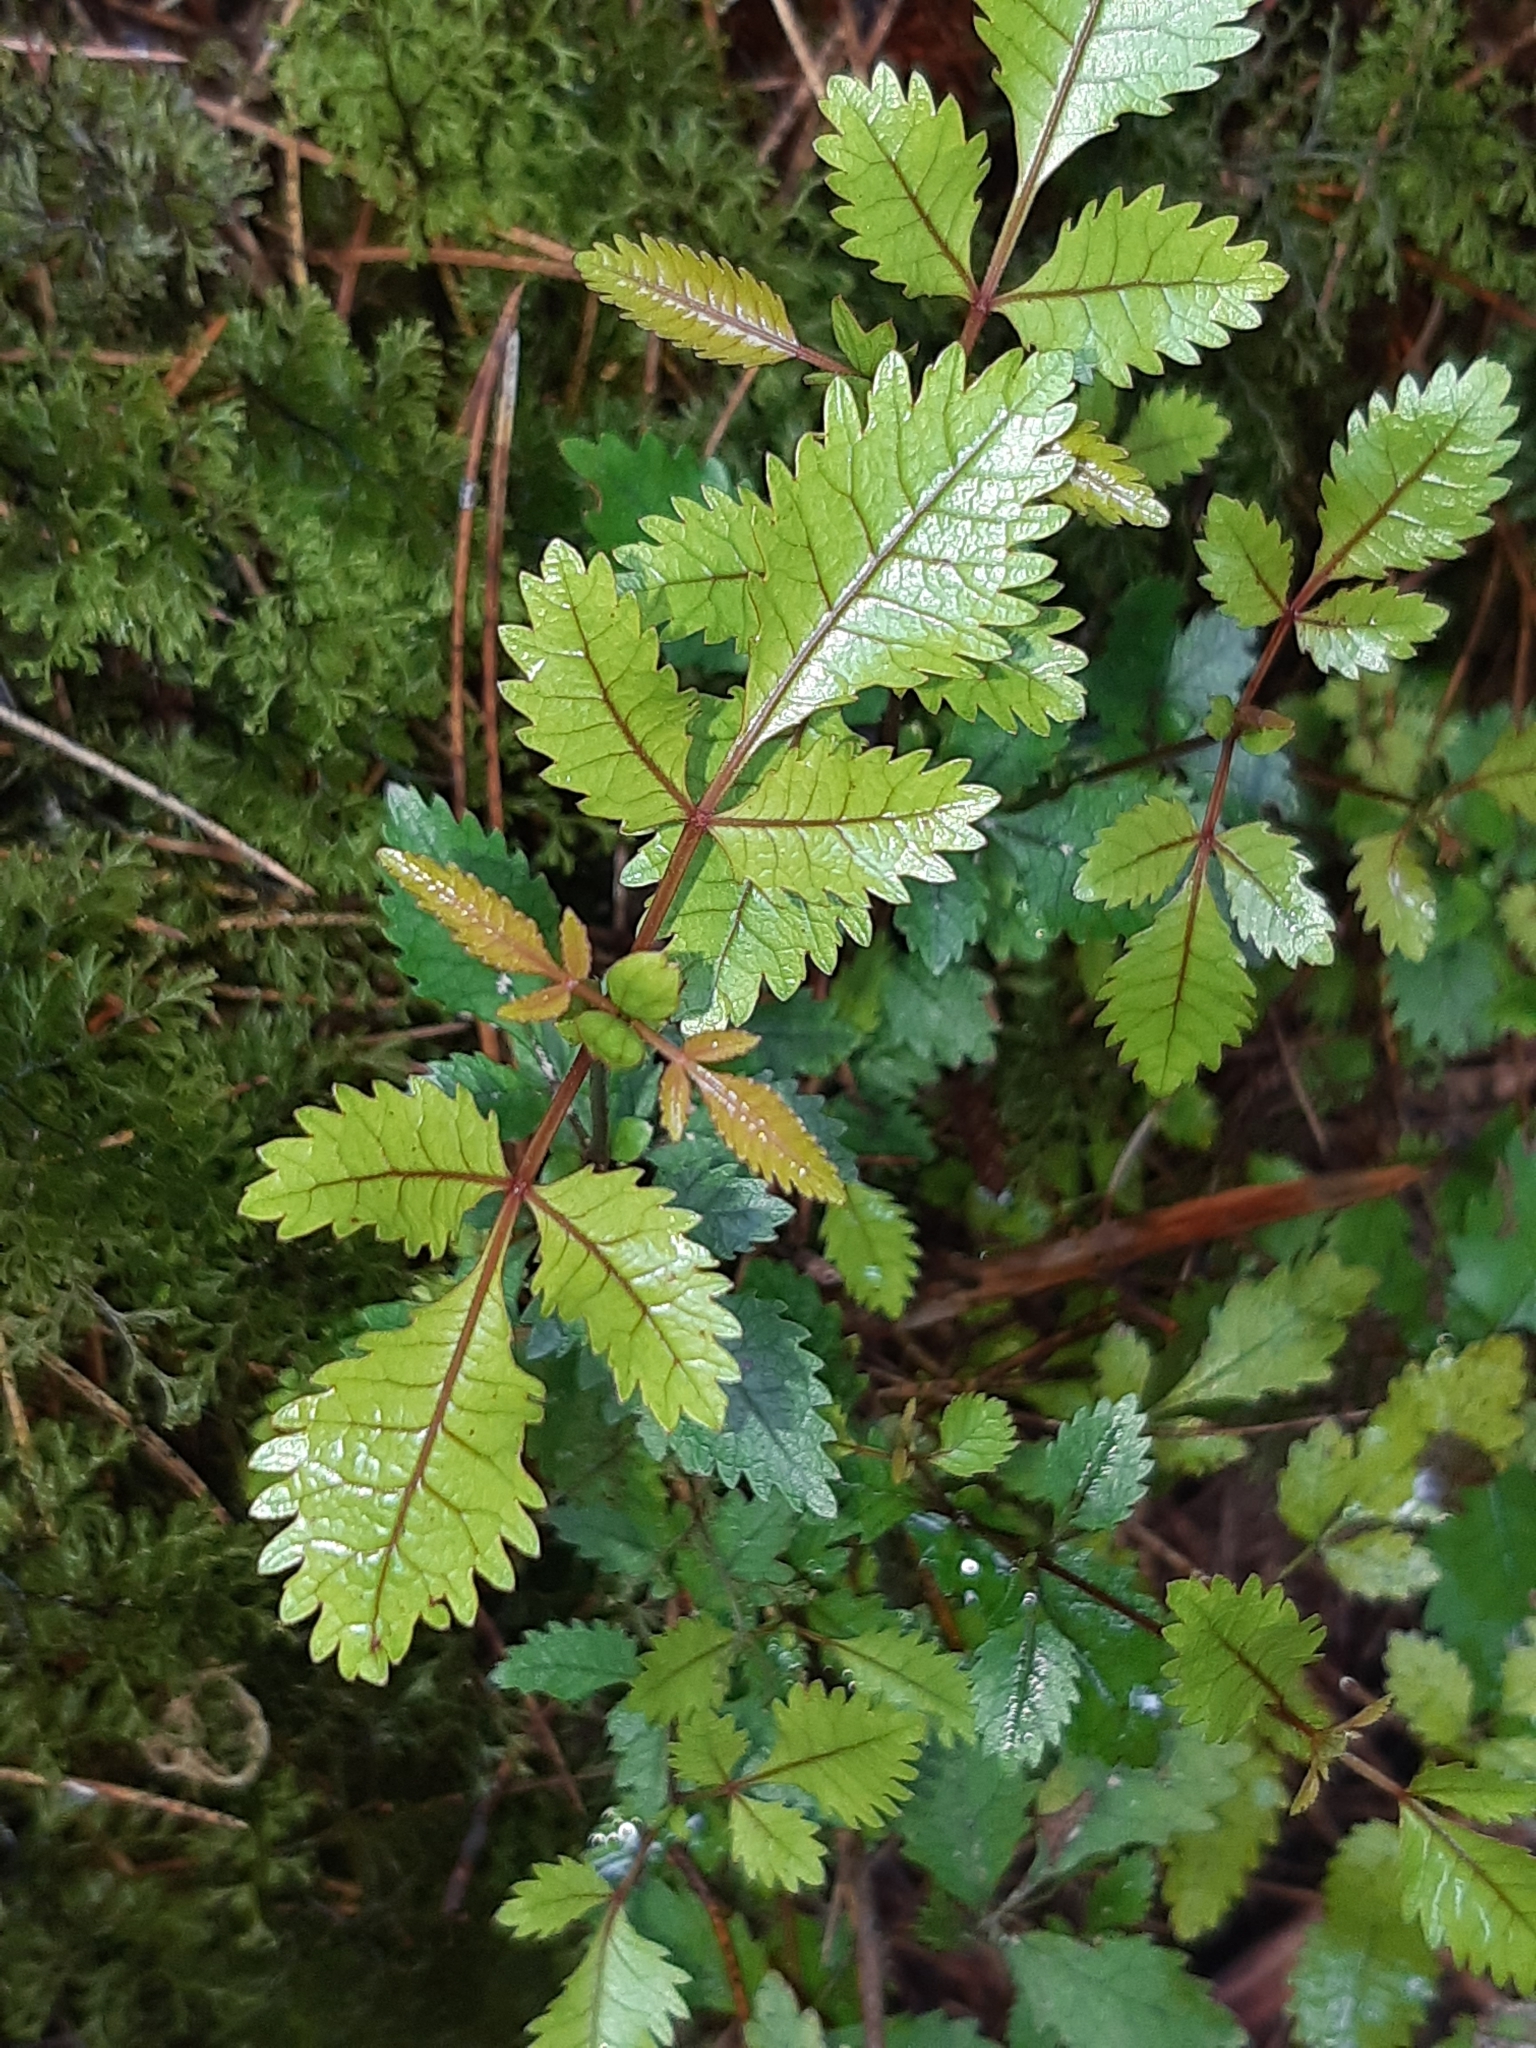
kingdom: Plantae
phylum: Tracheophyta
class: Magnoliopsida
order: Oxalidales
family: Cunoniaceae
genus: Pterophylla
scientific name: Pterophylla racemosa
